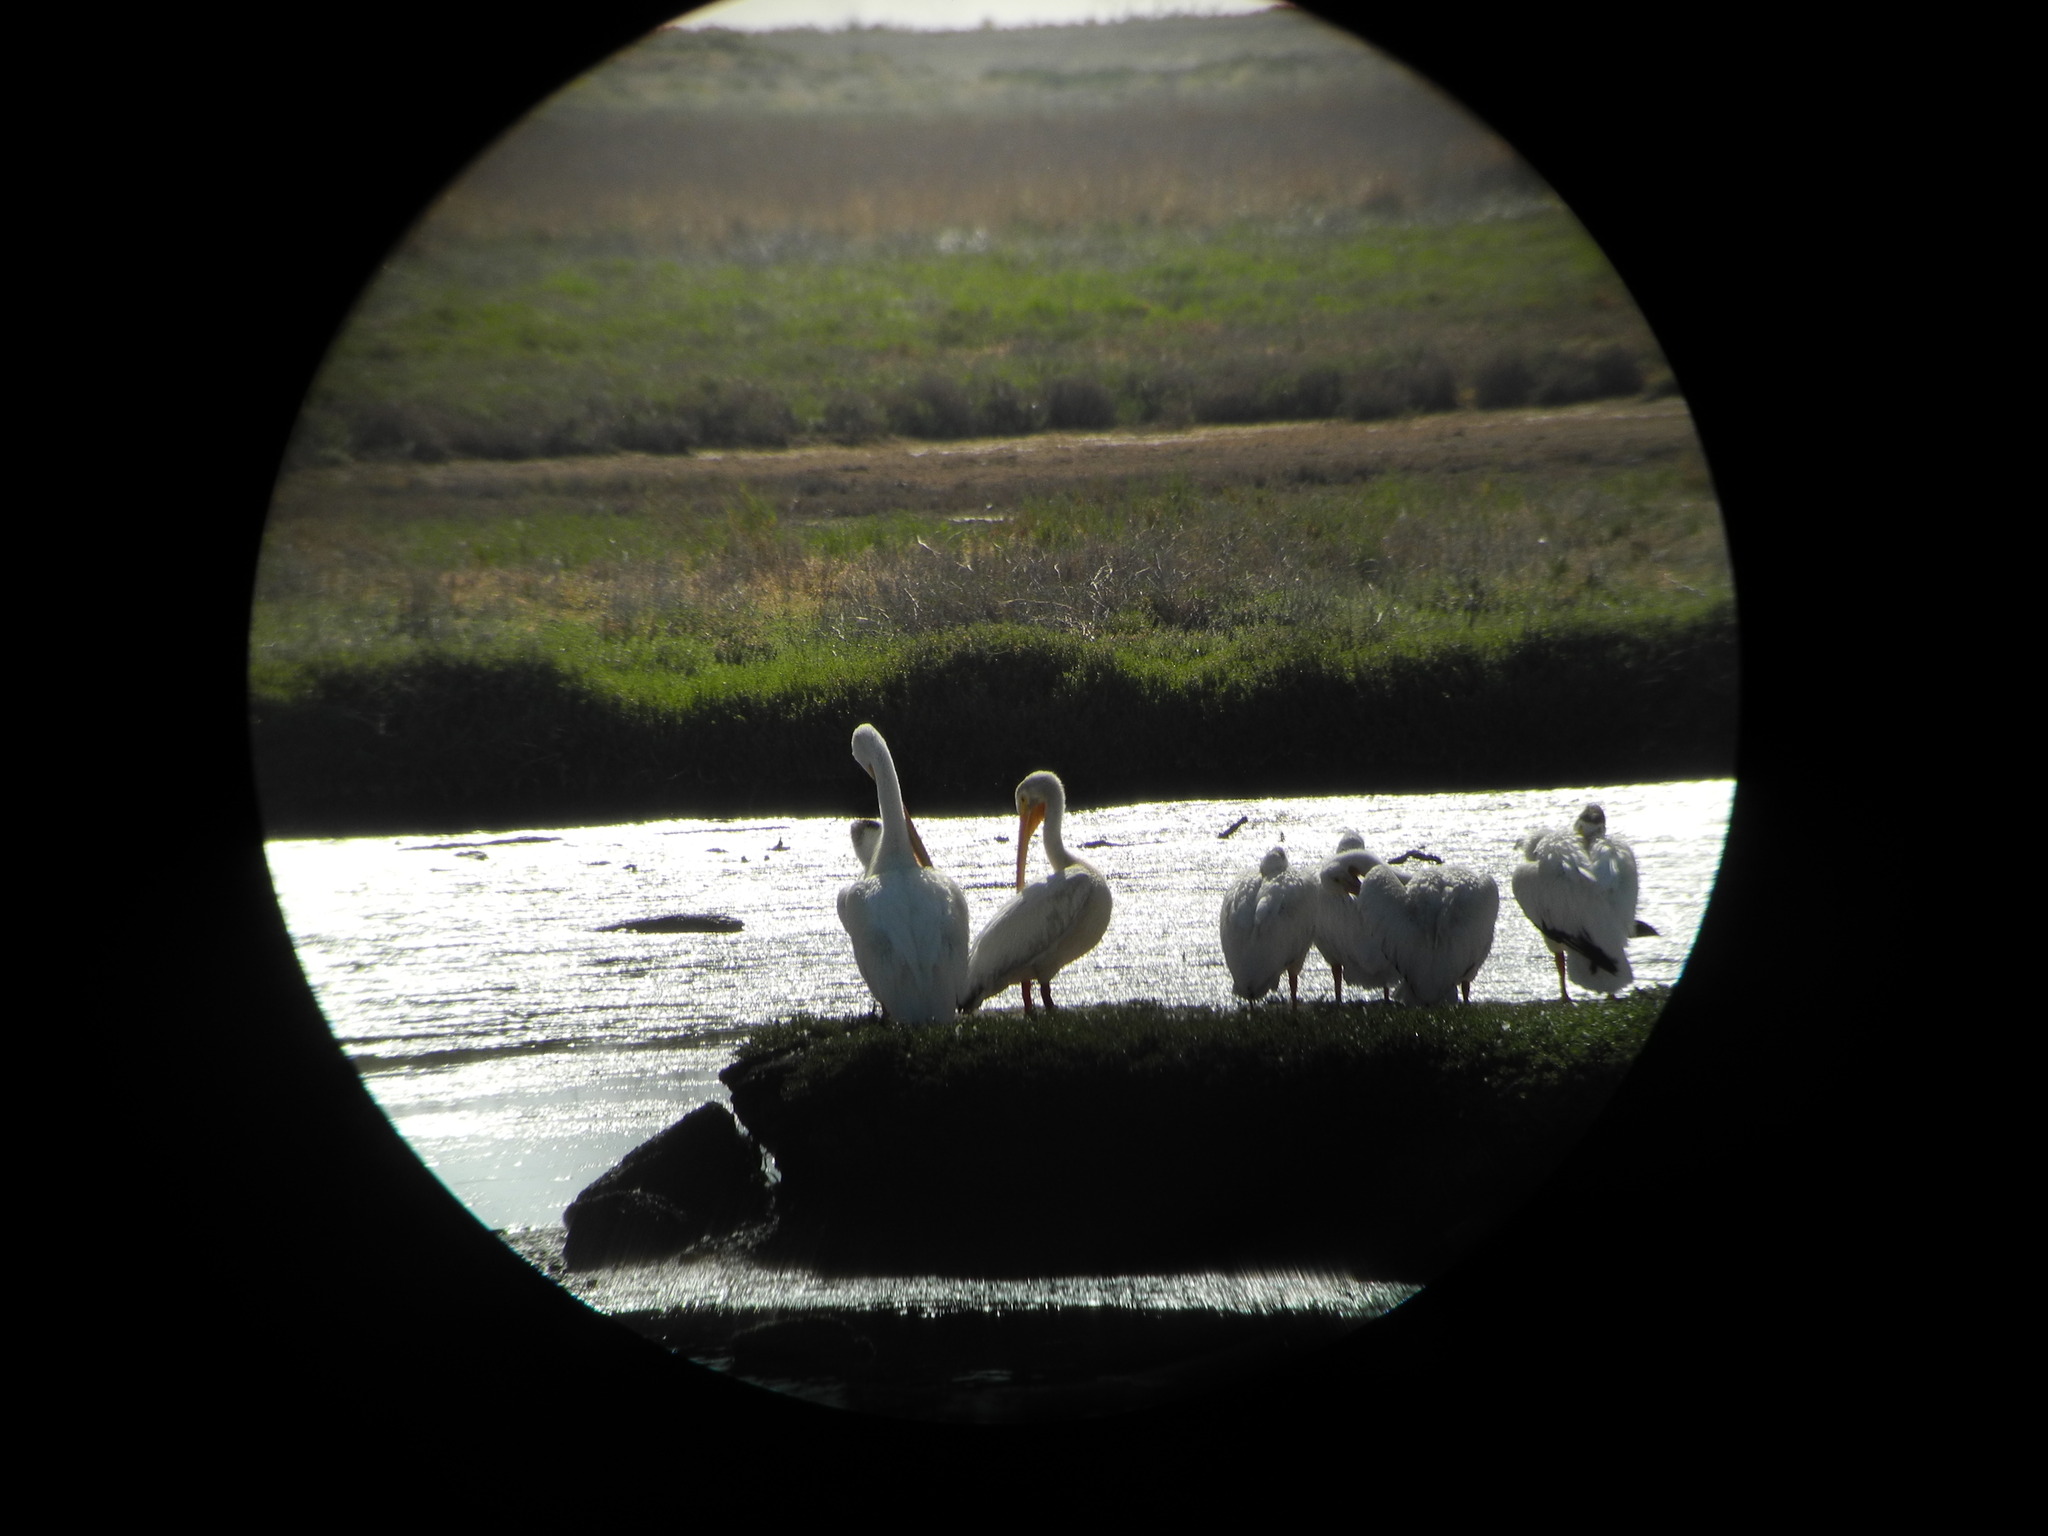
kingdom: Animalia
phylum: Chordata
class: Aves
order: Pelecaniformes
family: Pelecanidae
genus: Pelecanus
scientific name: Pelecanus erythrorhynchos
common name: American white pelican
